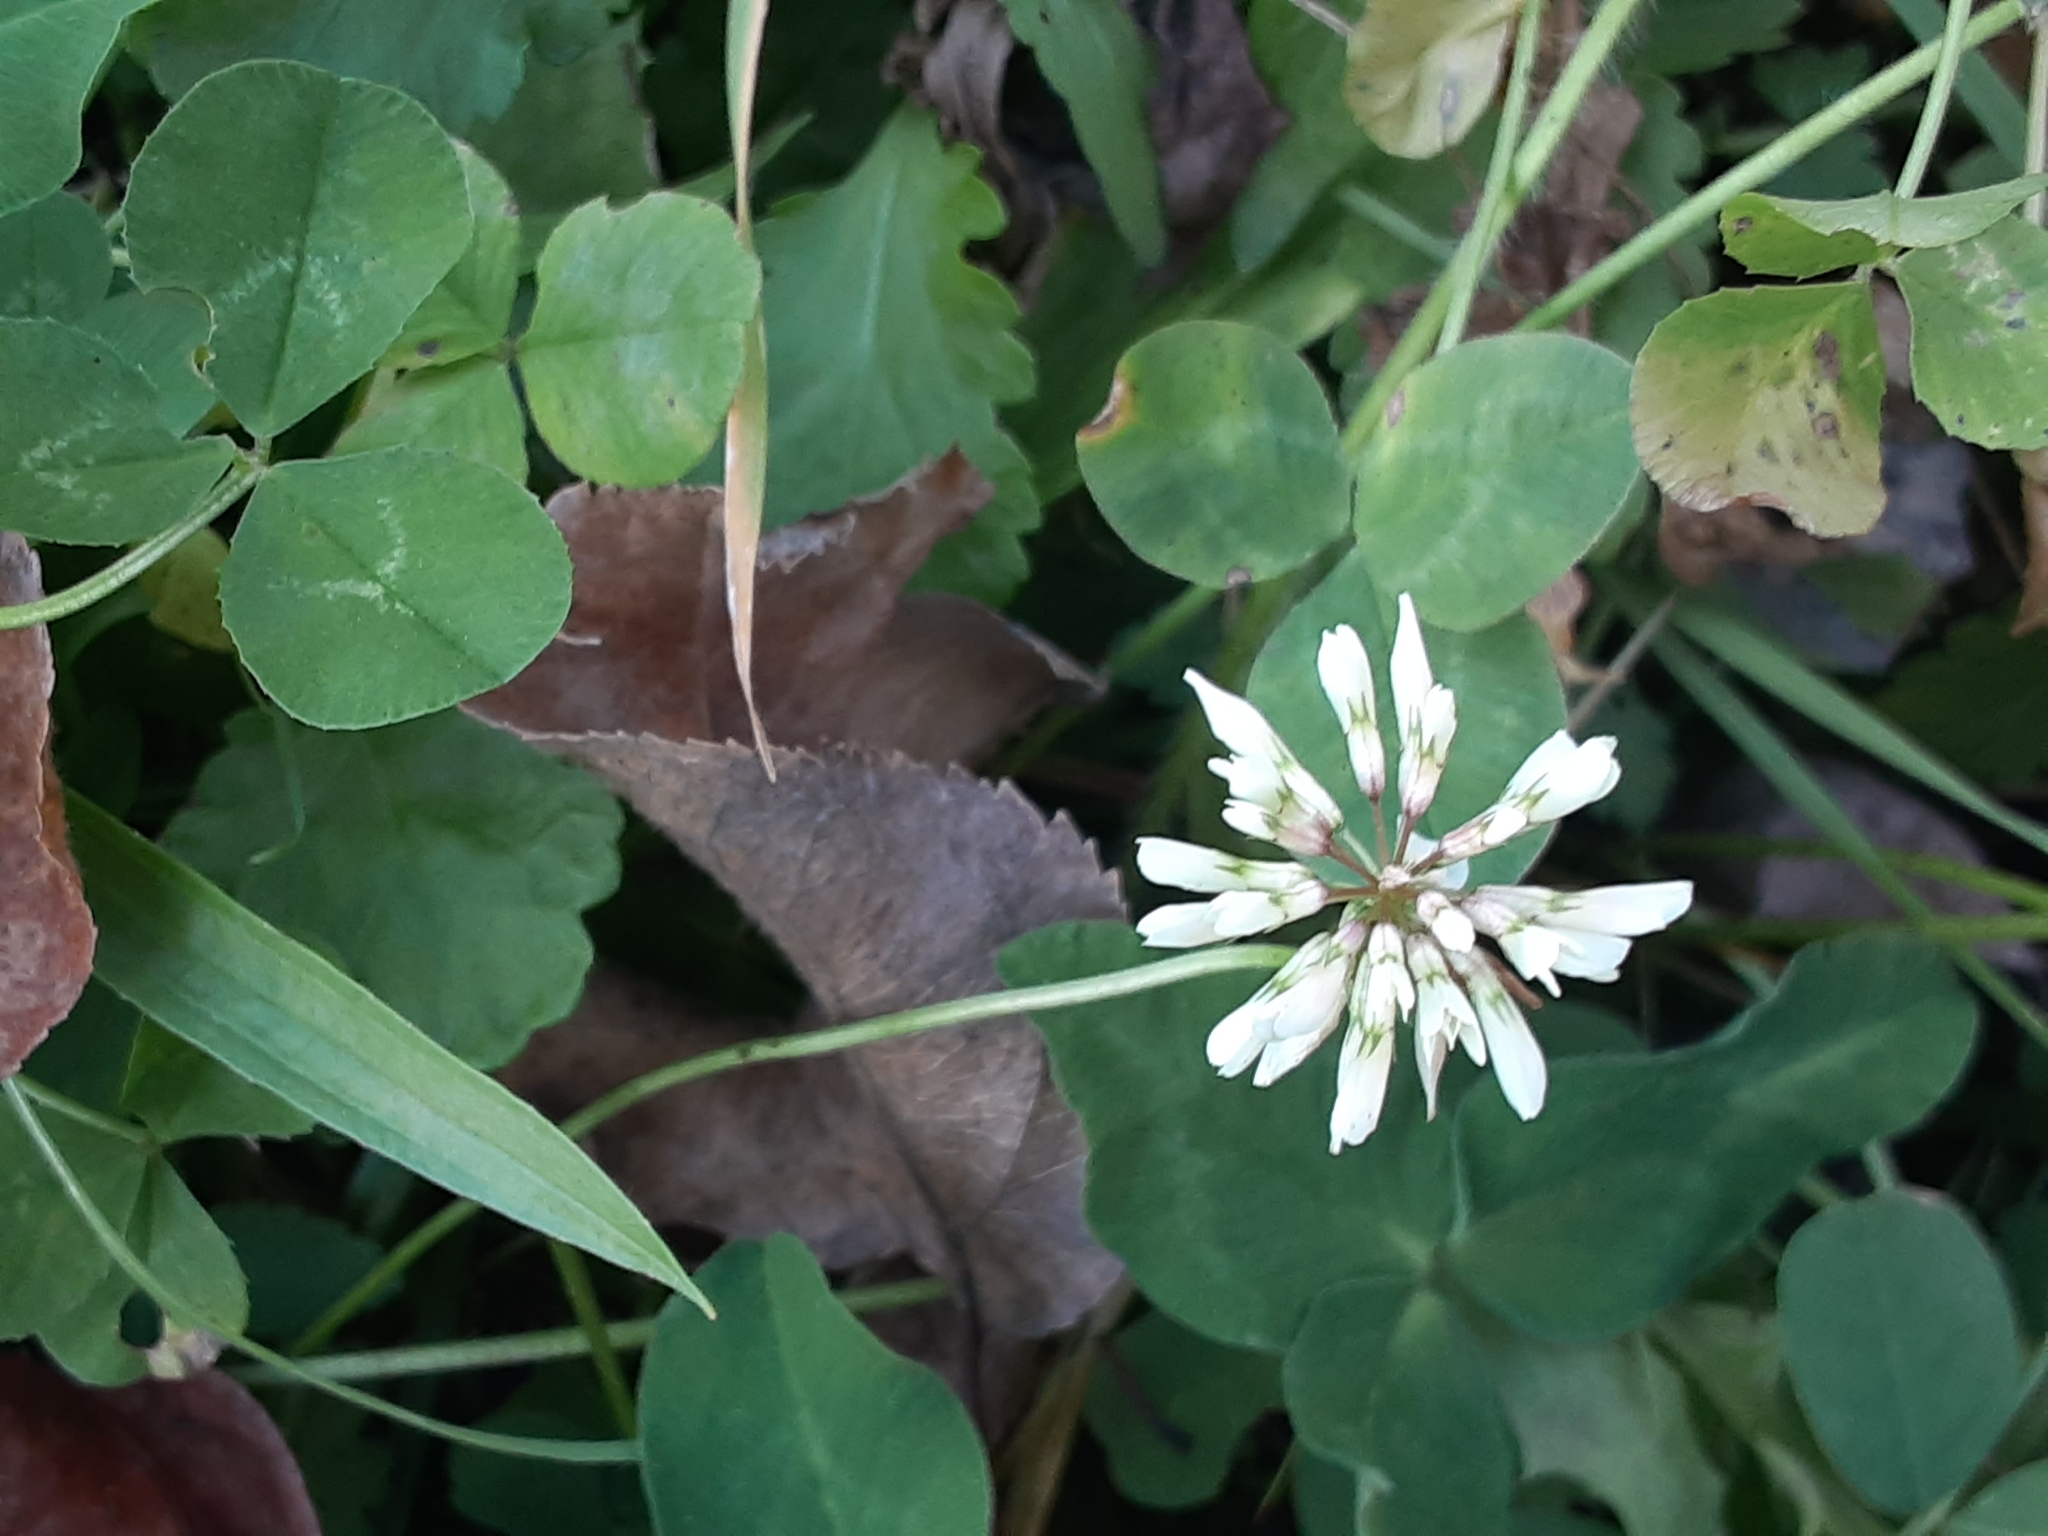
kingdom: Plantae
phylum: Tracheophyta
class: Magnoliopsida
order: Fabales
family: Fabaceae
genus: Trifolium
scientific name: Trifolium repens
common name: White clover
